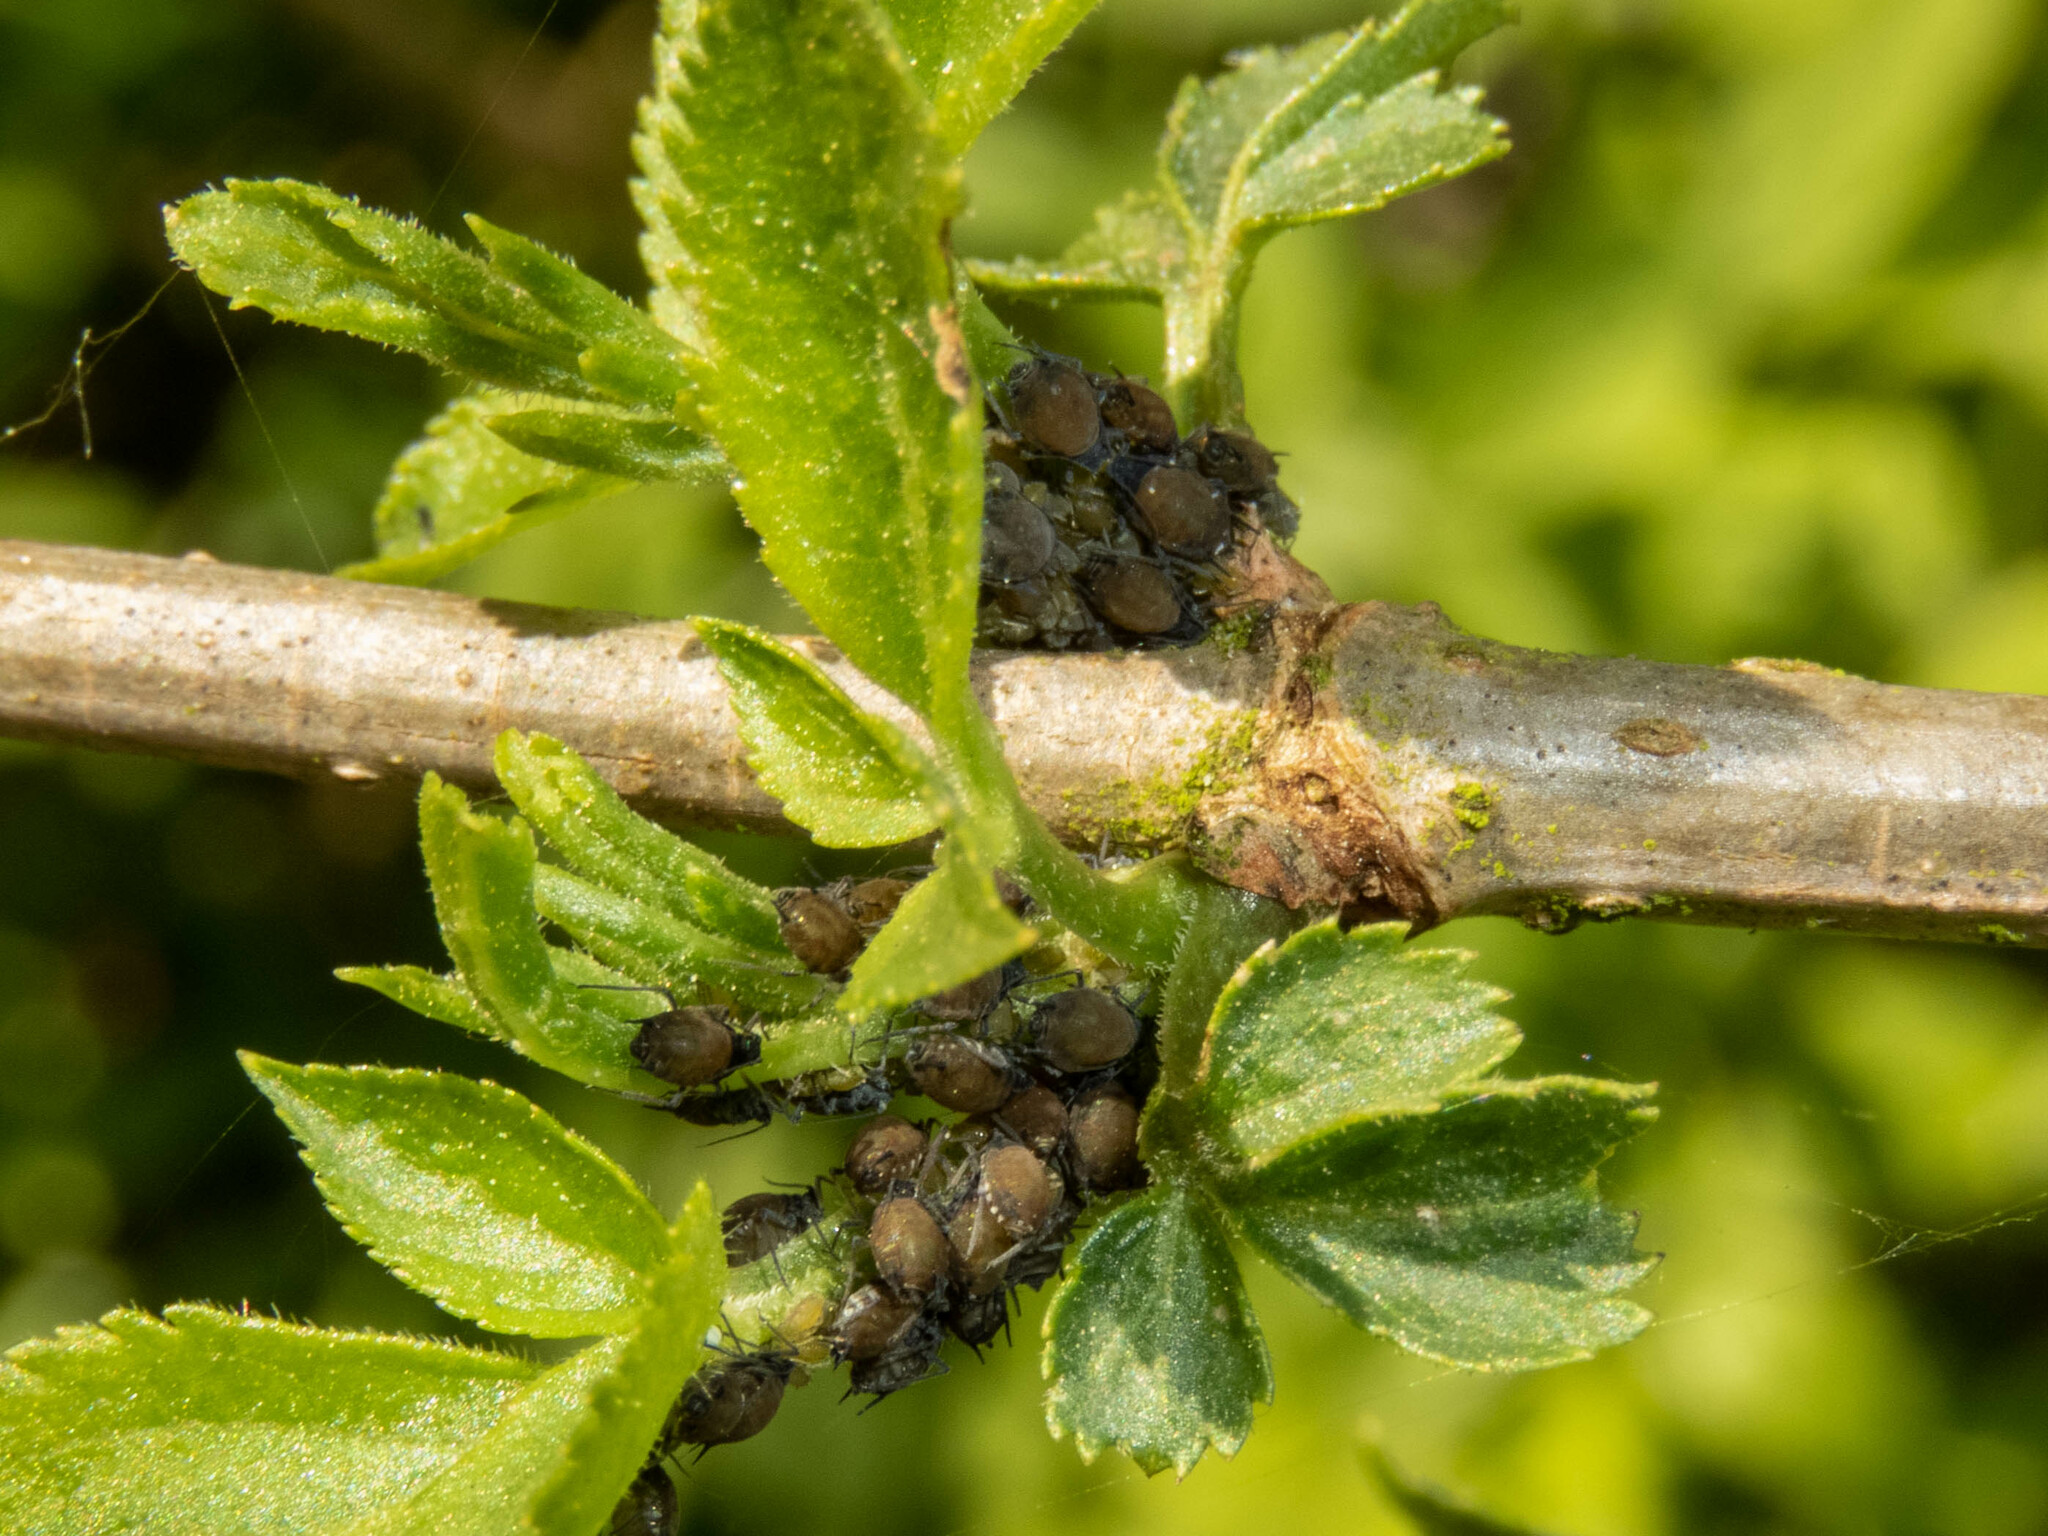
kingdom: Animalia
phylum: Arthropoda
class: Insecta
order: Hemiptera
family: Aphididae
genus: Aphis
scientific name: Aphis sambuci
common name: Elder aphid
